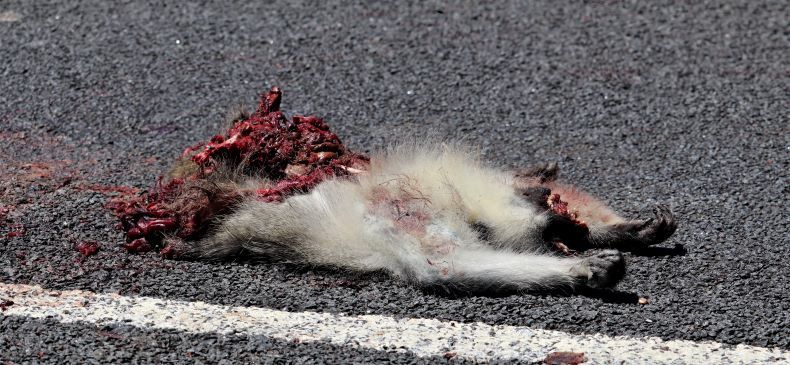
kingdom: Animalia
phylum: Chordata
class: Mammalia
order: Primates
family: Cercopithecidae
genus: Chlorocebus
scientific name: Chlorocebus pygerythrus
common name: Vervet monkey
